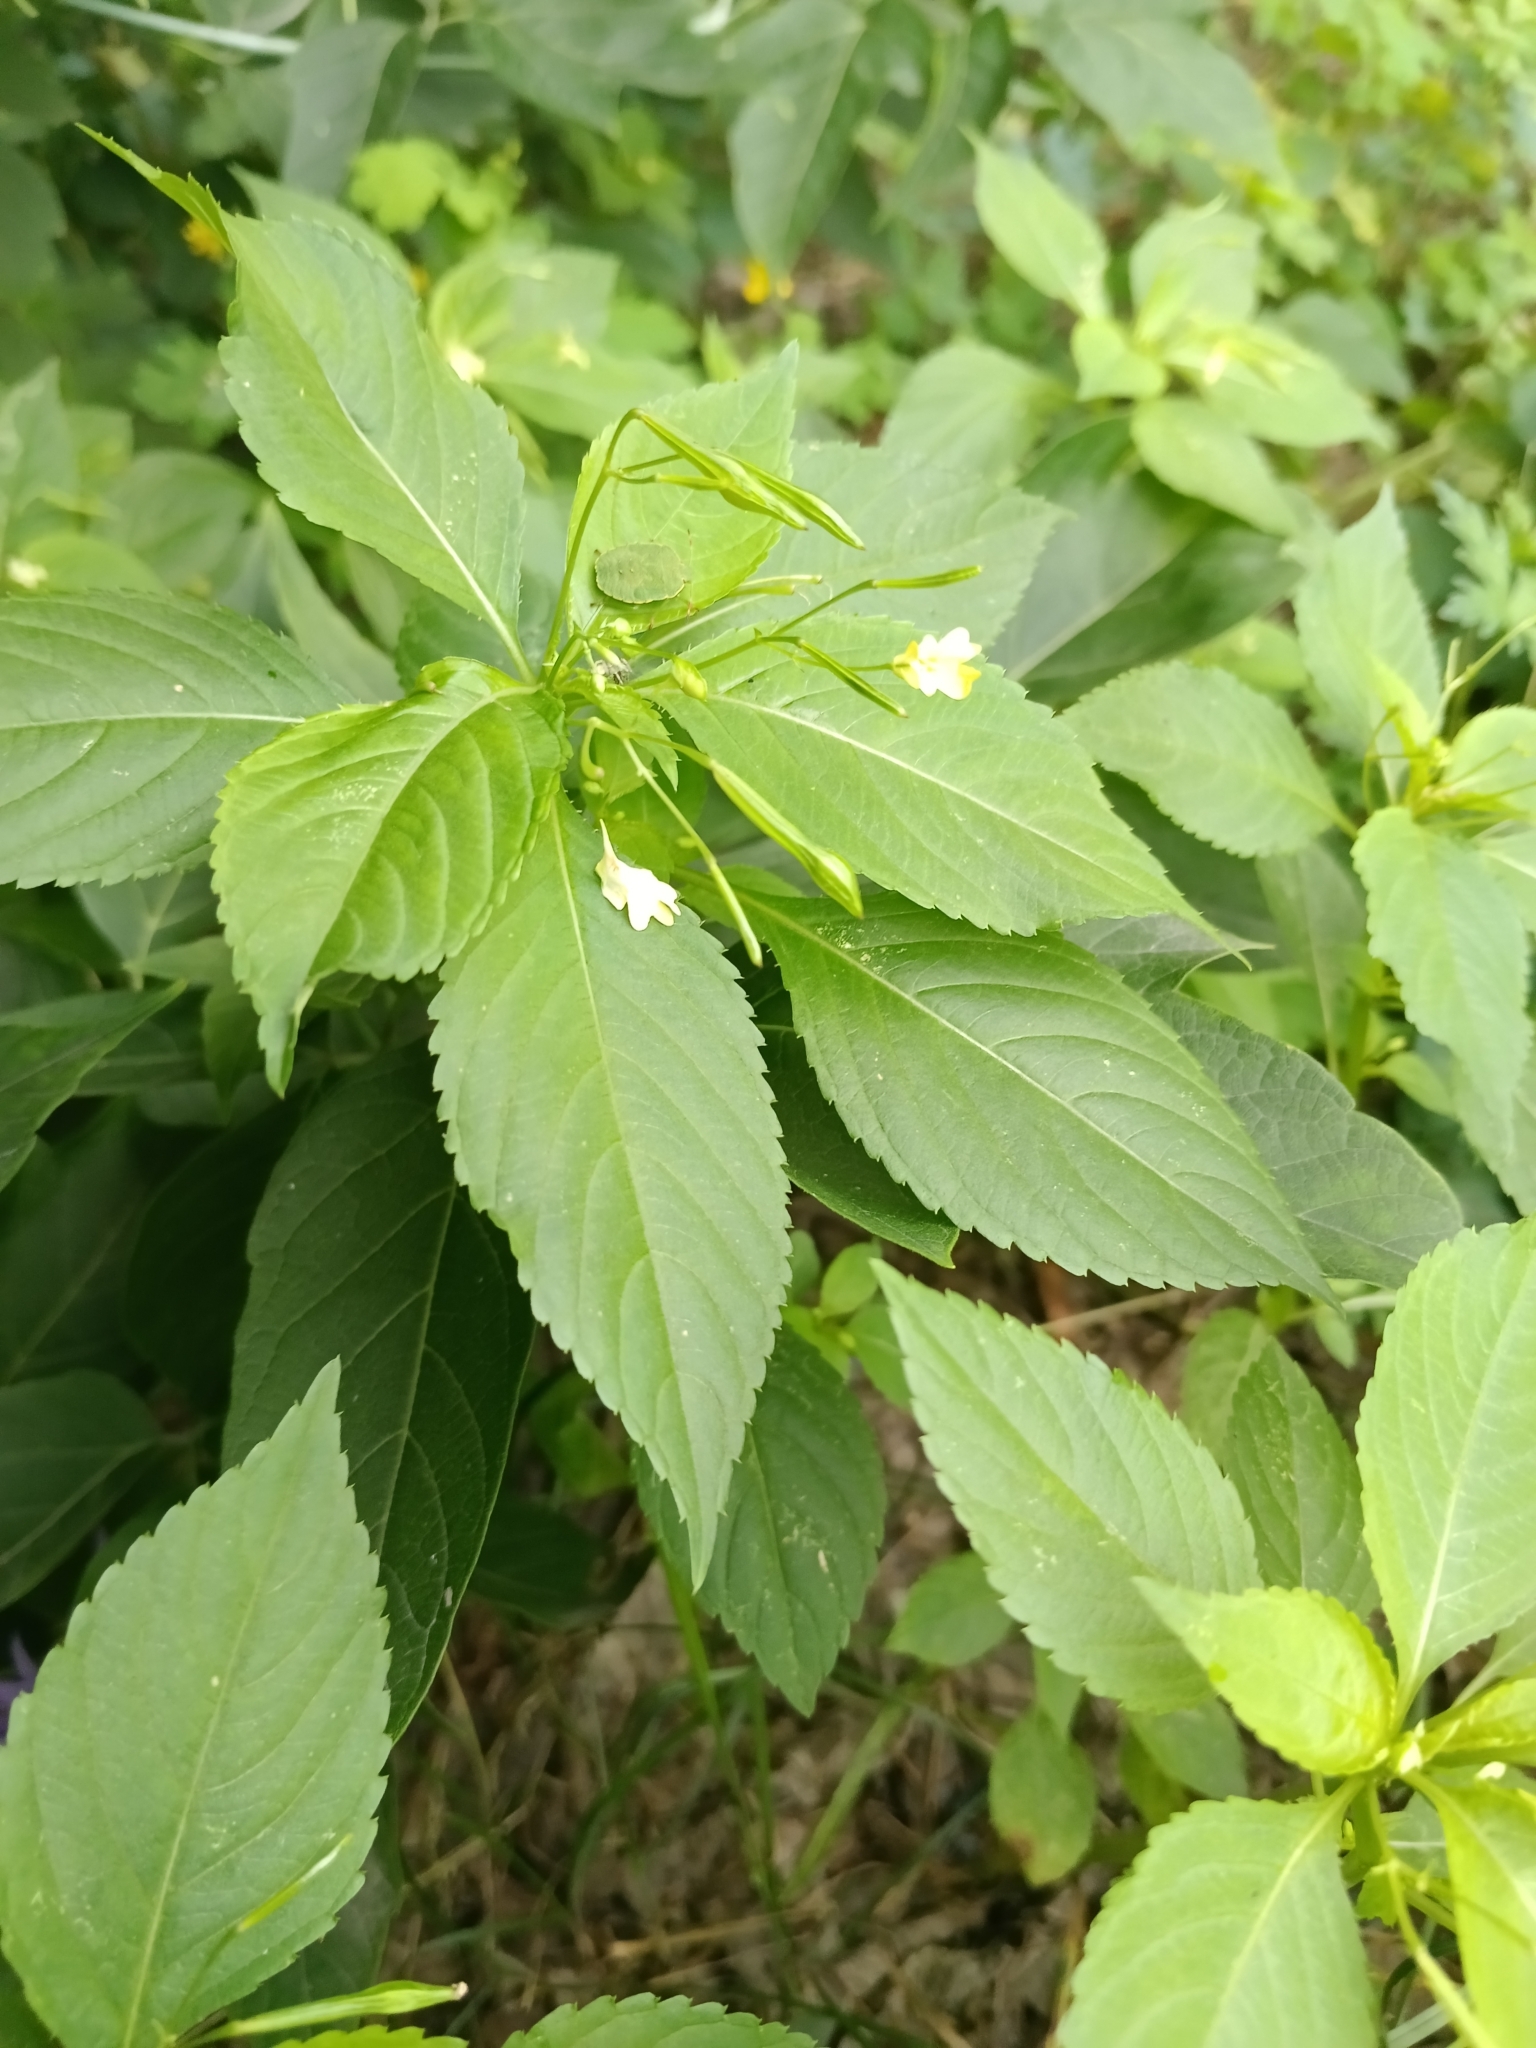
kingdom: Plantae
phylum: Tracheophyta
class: Magnoliopsida
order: Ericales
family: Balsaminaceae
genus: Impatiens
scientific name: Impatiens parviflora
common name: Small balsam
